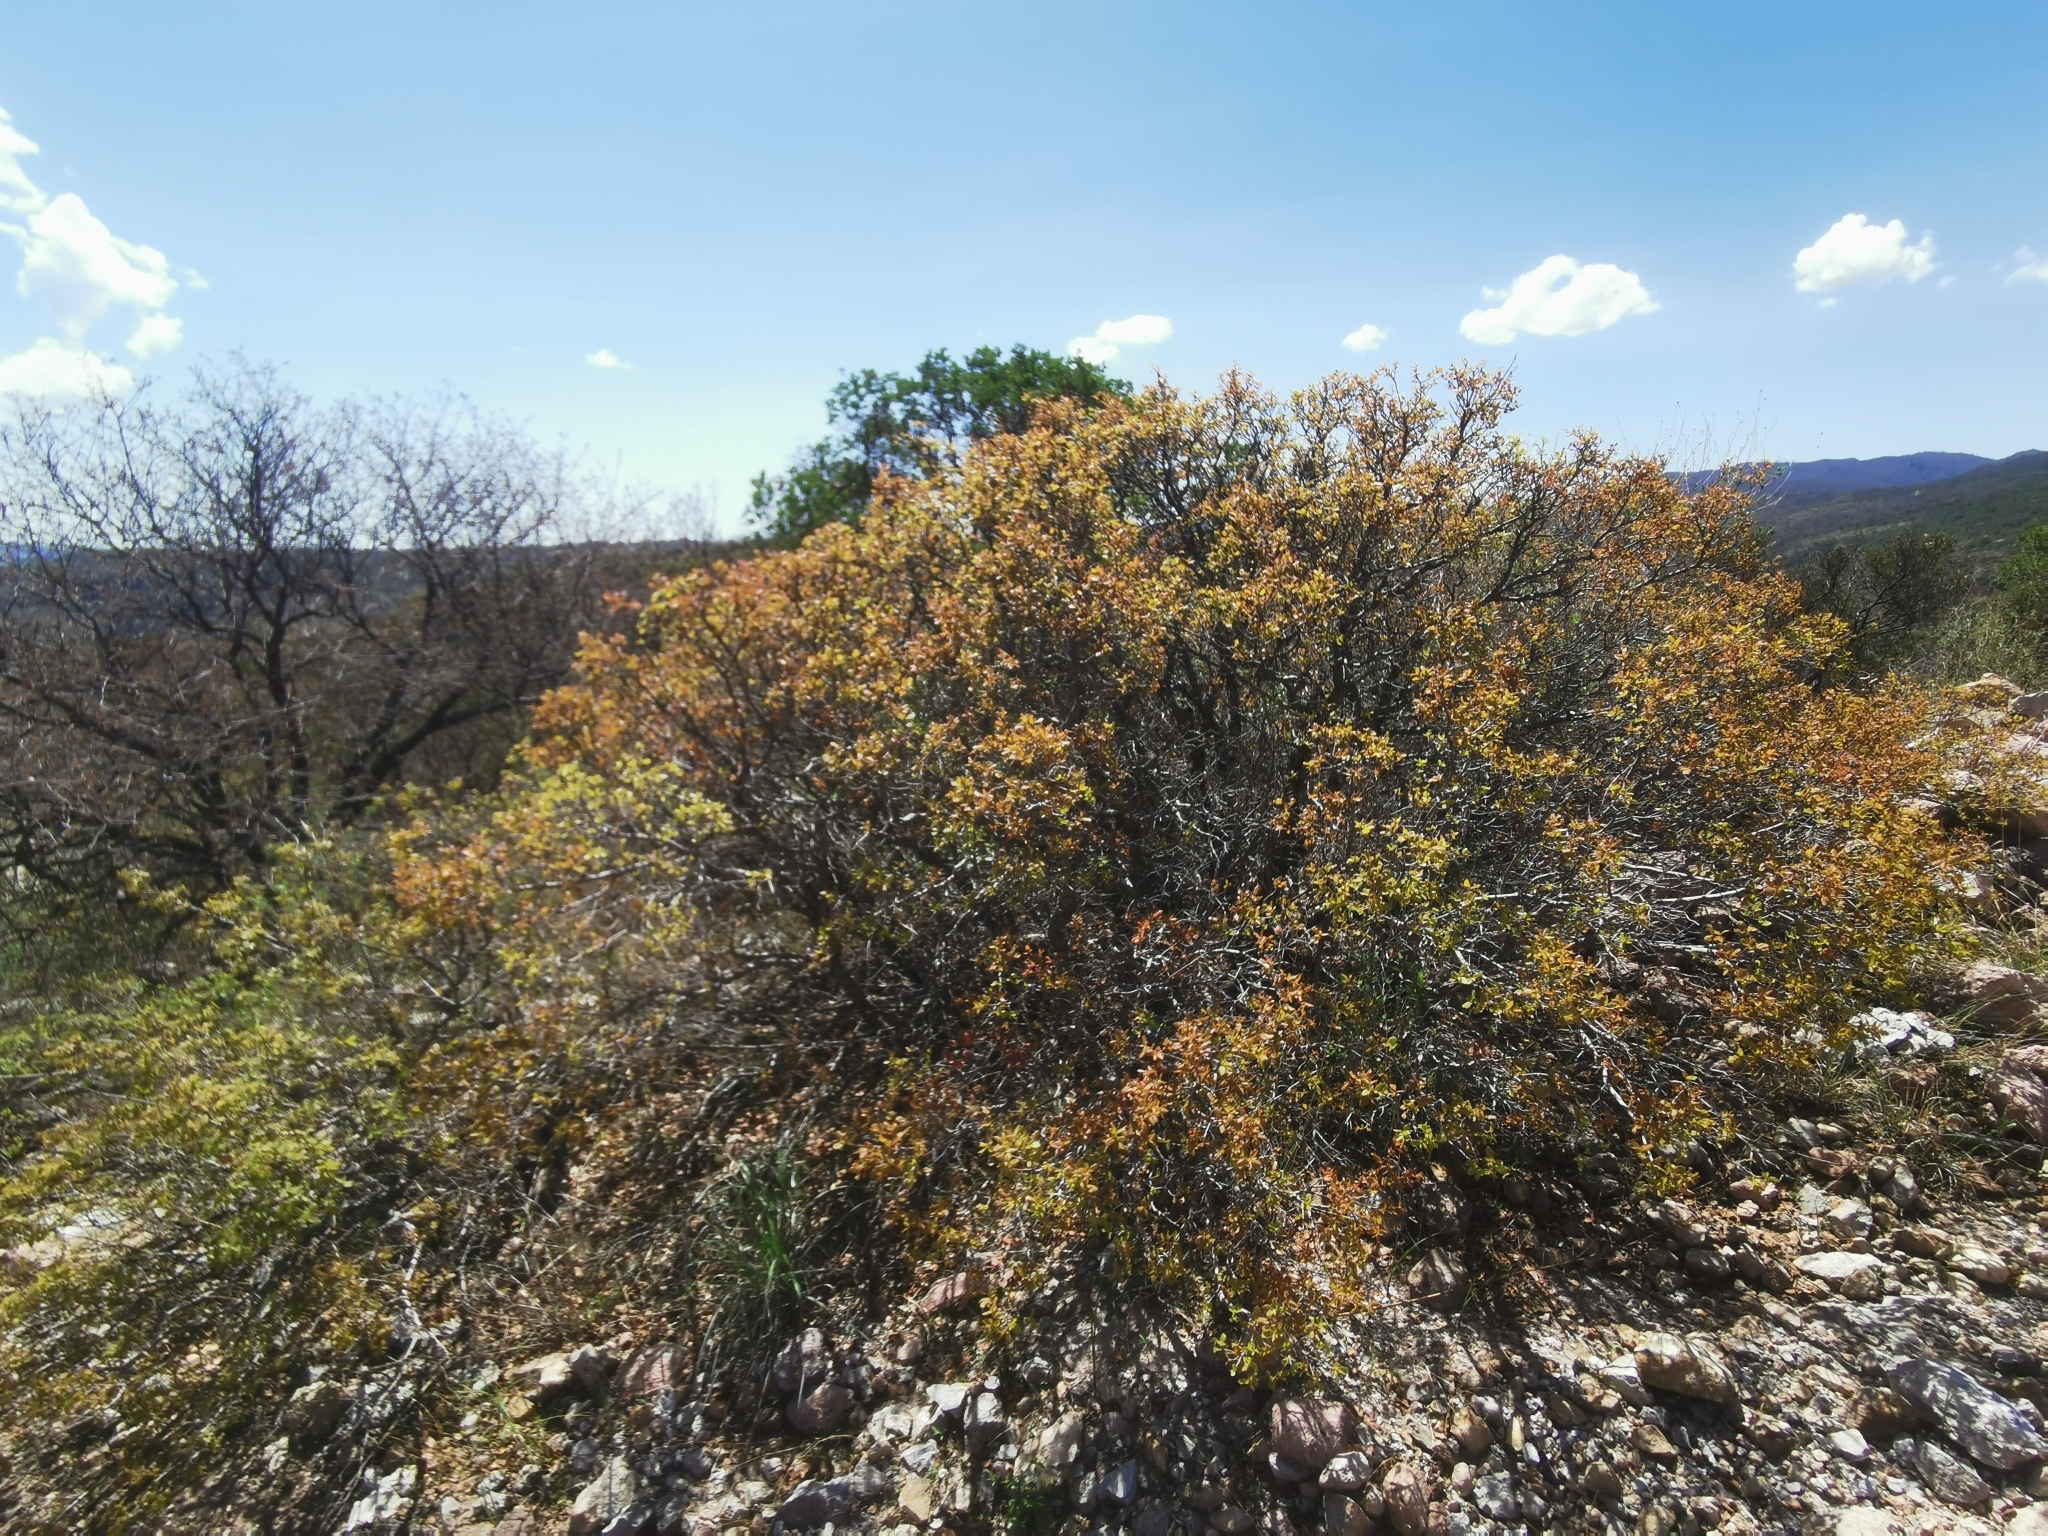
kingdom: Plantae
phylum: Tracheophyta
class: Magnoliopsida
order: Fagales
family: Fagaceae
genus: Quercus
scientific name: Quercus depressipes
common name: Davis mountain oak
